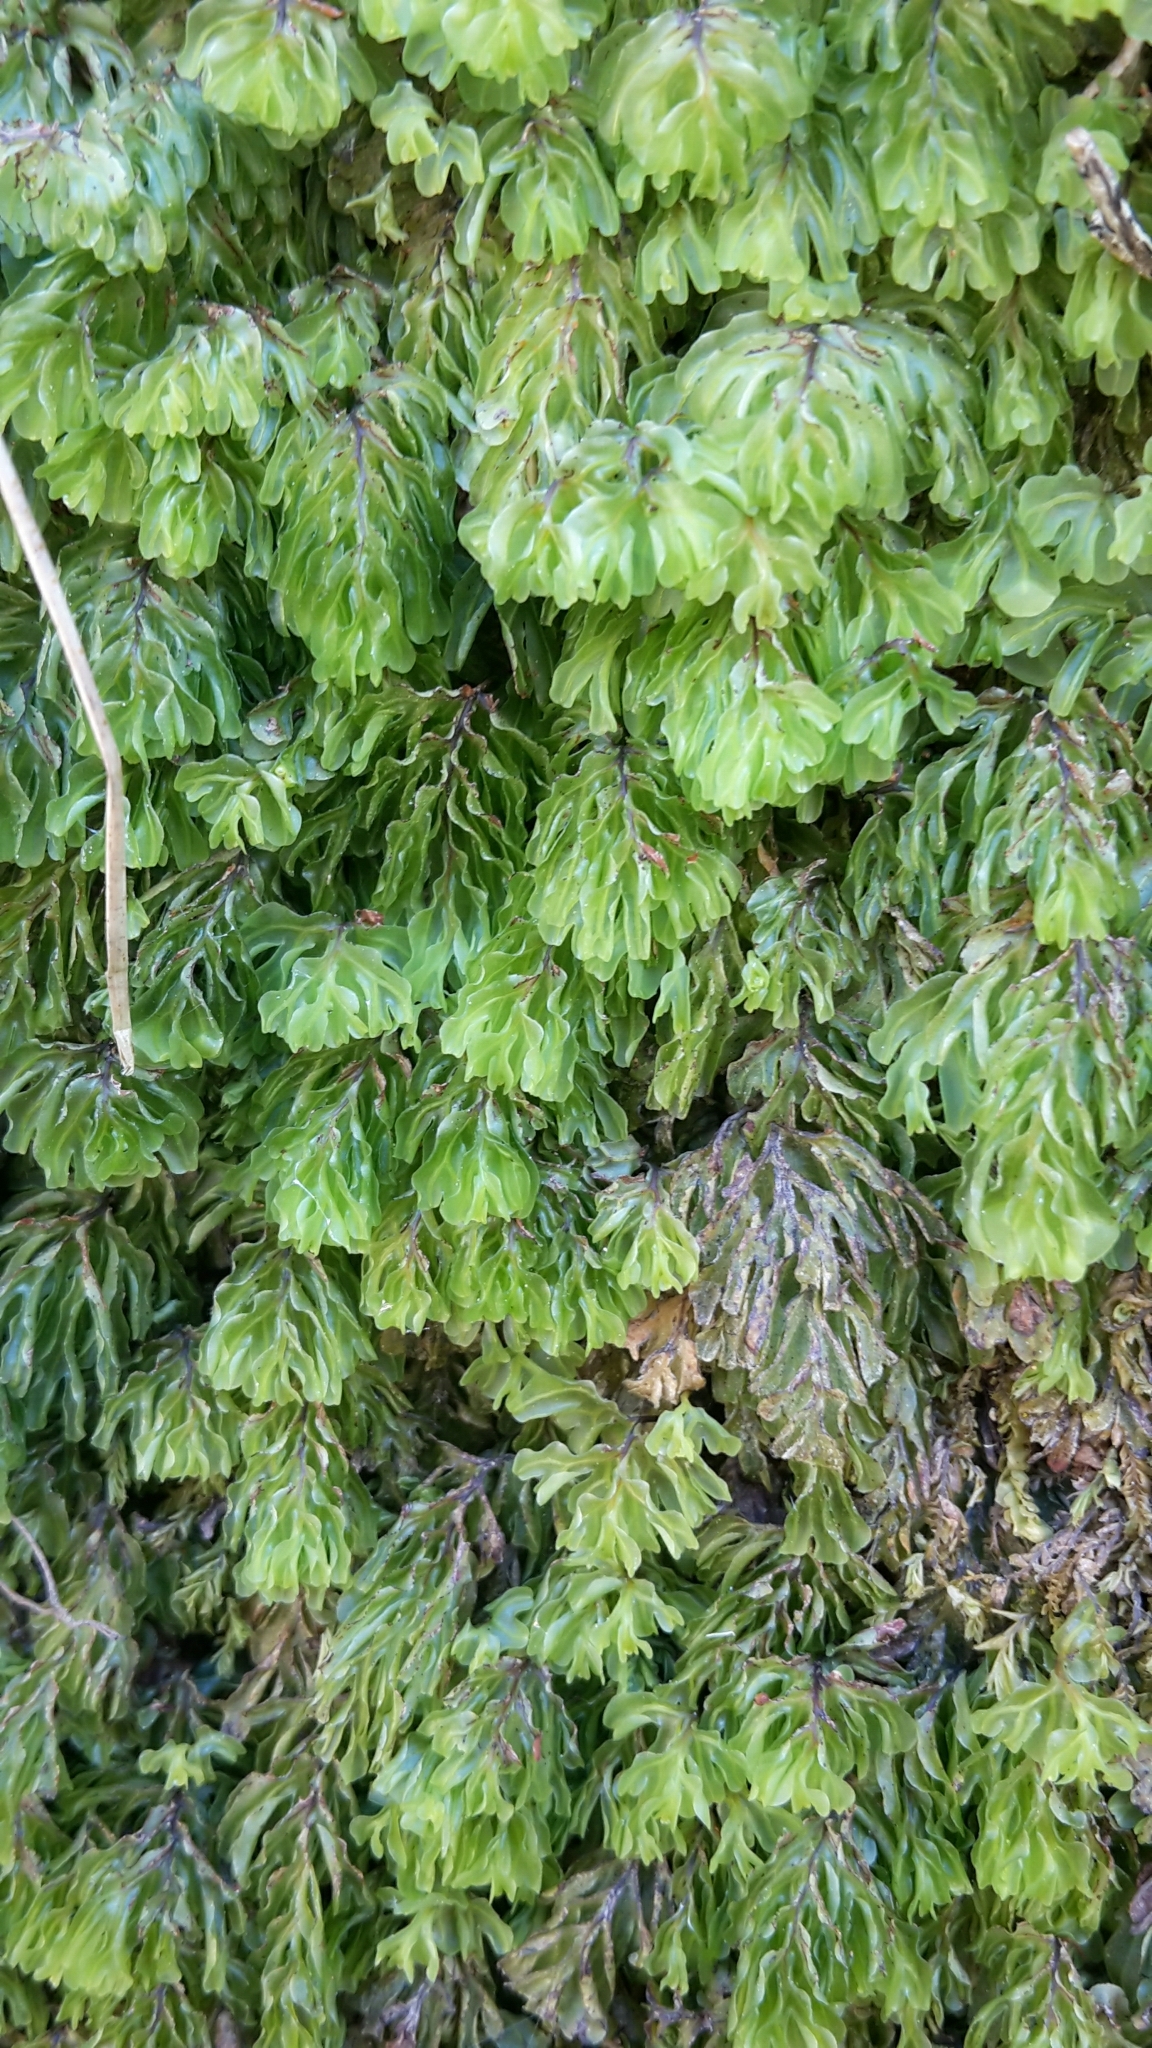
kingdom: Plantae
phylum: Tracheophyta
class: Polypodiopsida
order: Hymenophyllales
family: Hymenophyllaceae
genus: Hymenophyllum
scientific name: Hymenophyllum rarum
